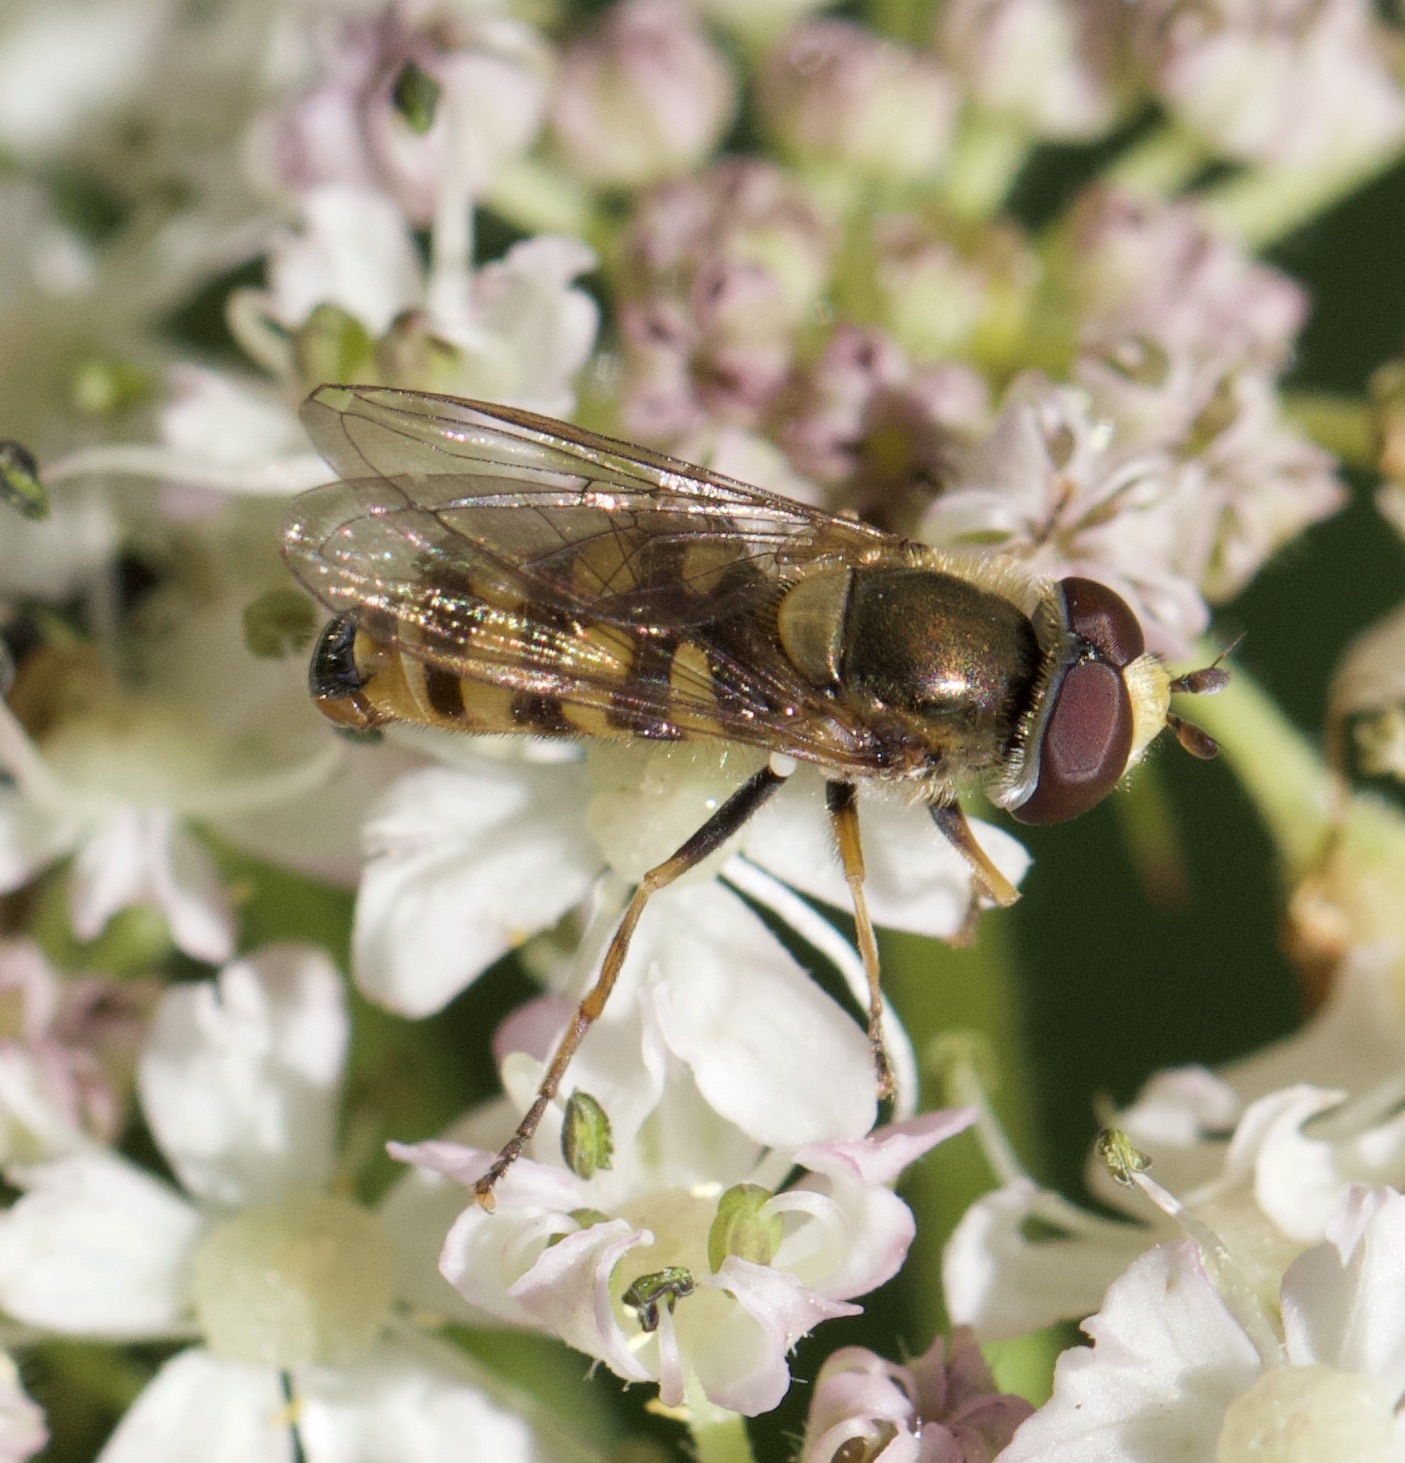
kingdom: Animalia
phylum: Arthropoda
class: Insecta
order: Diptera
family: Syrphidae
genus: Eupeodes
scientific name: Eupeodes corollae
